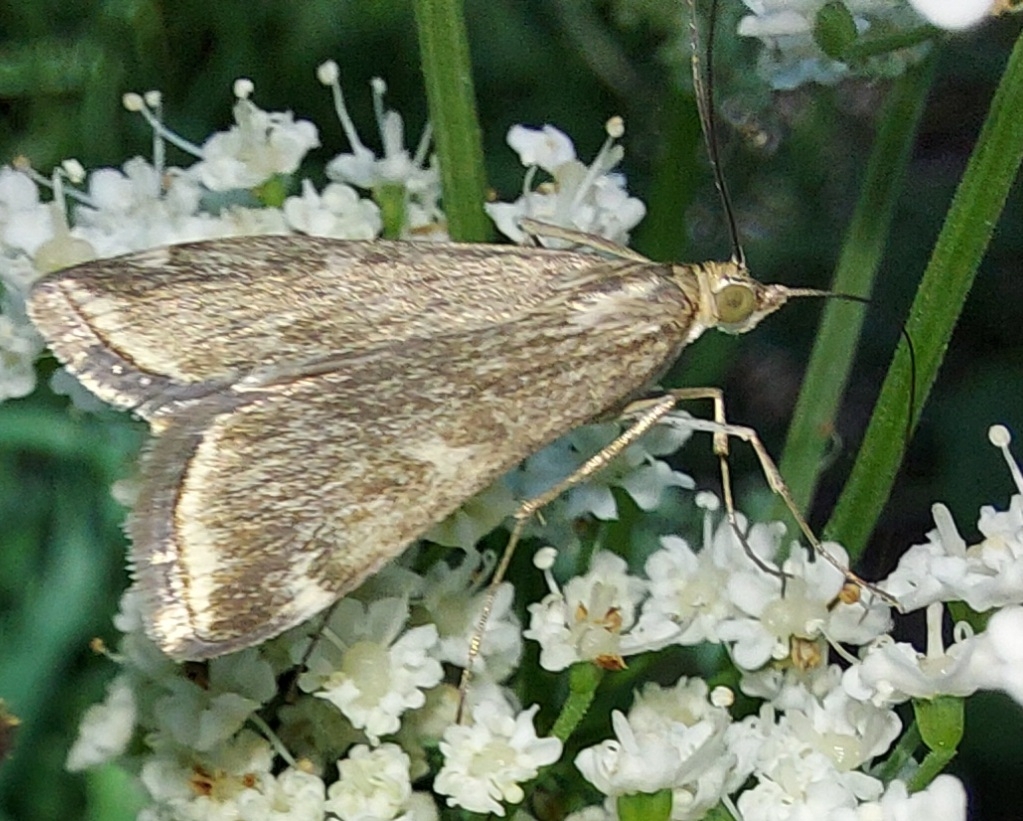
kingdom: Animalia
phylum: Arthropoda
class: Insecta
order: Lepidoptera
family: Crambidae
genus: Loxostege
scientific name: Loxostege sticticalis
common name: Crambid moth
